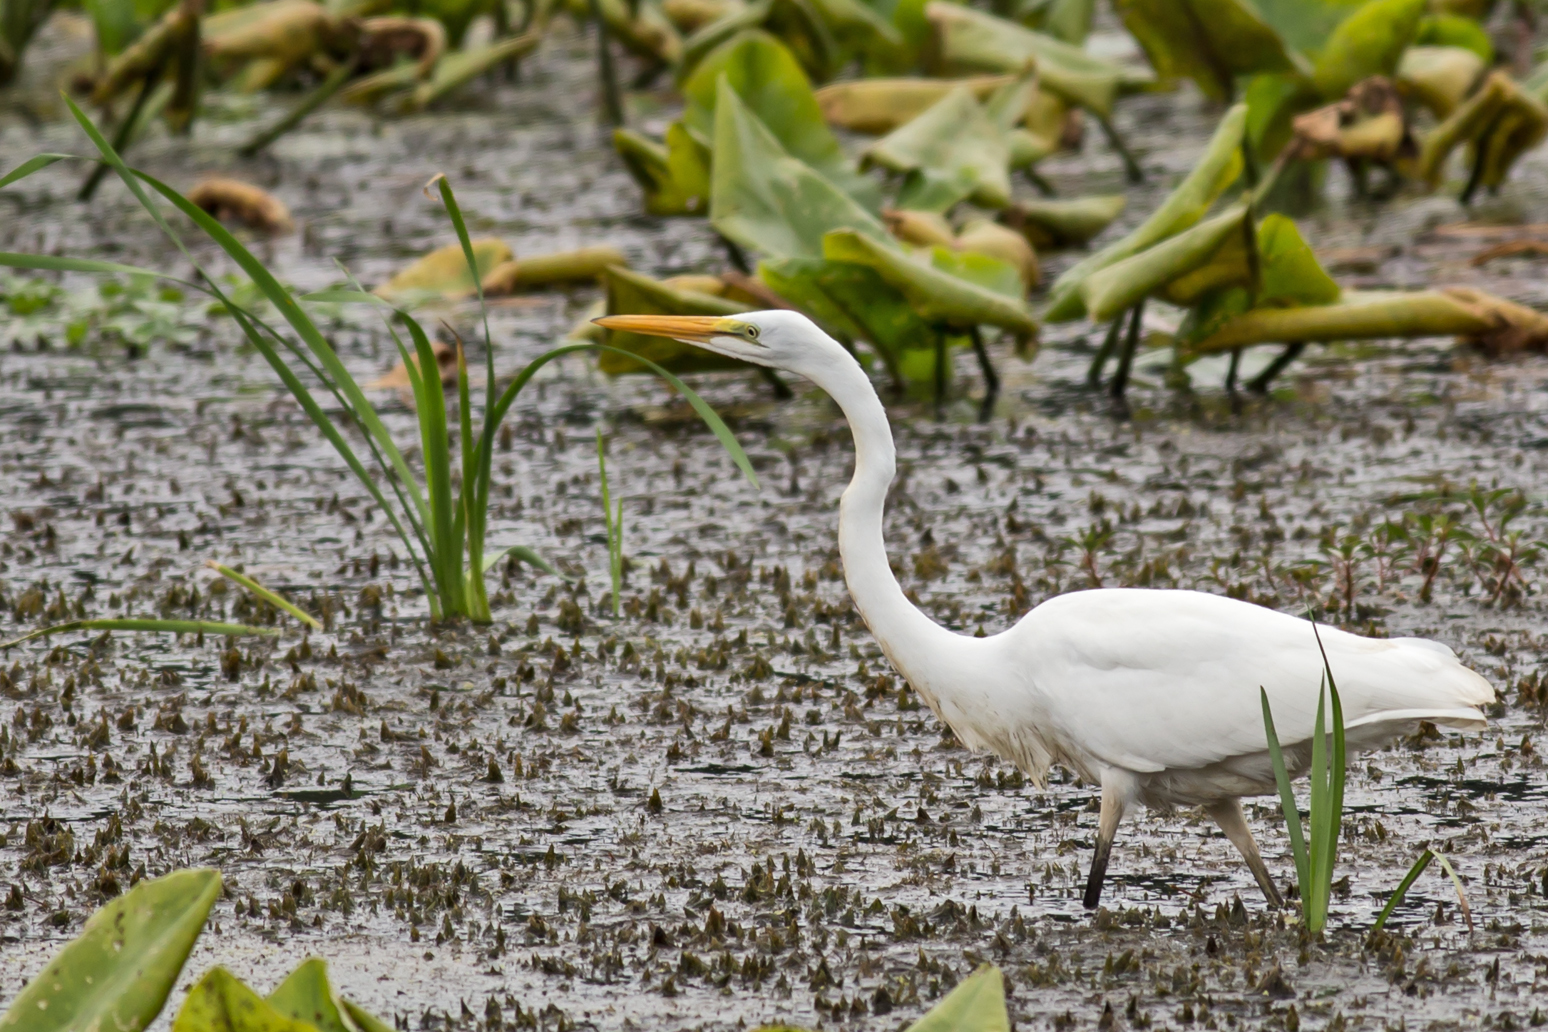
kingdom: Animalia
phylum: Chordata
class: Aves
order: Pelecaniformes
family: Ardeidae
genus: Ardea
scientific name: Ardea alba
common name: Great egret
